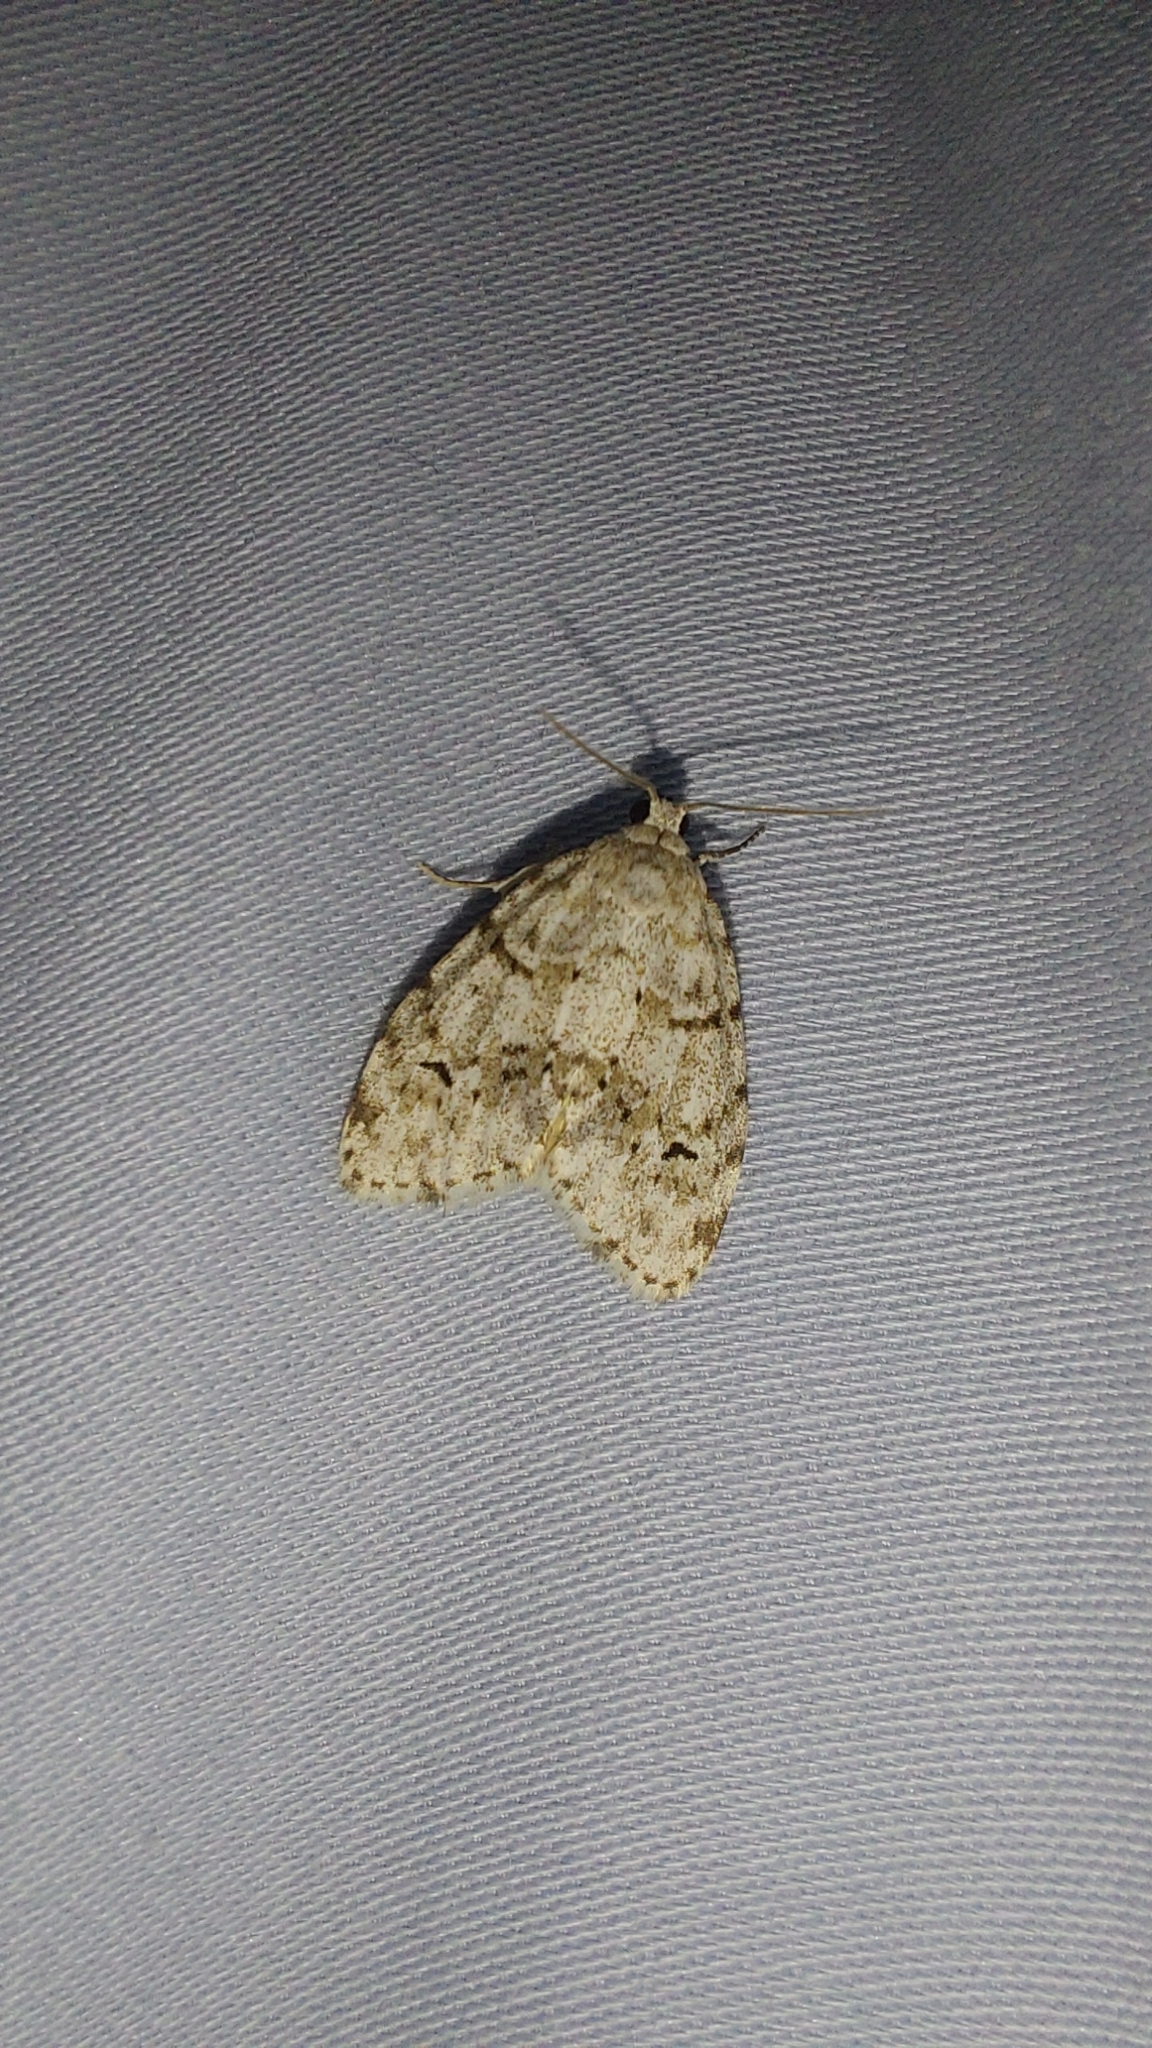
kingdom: Animalia
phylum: Arthropoda
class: Insecta
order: Lepidoptera
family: Erebidae
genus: Clemensia
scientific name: Clemensia albata
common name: Little white lichen moth
